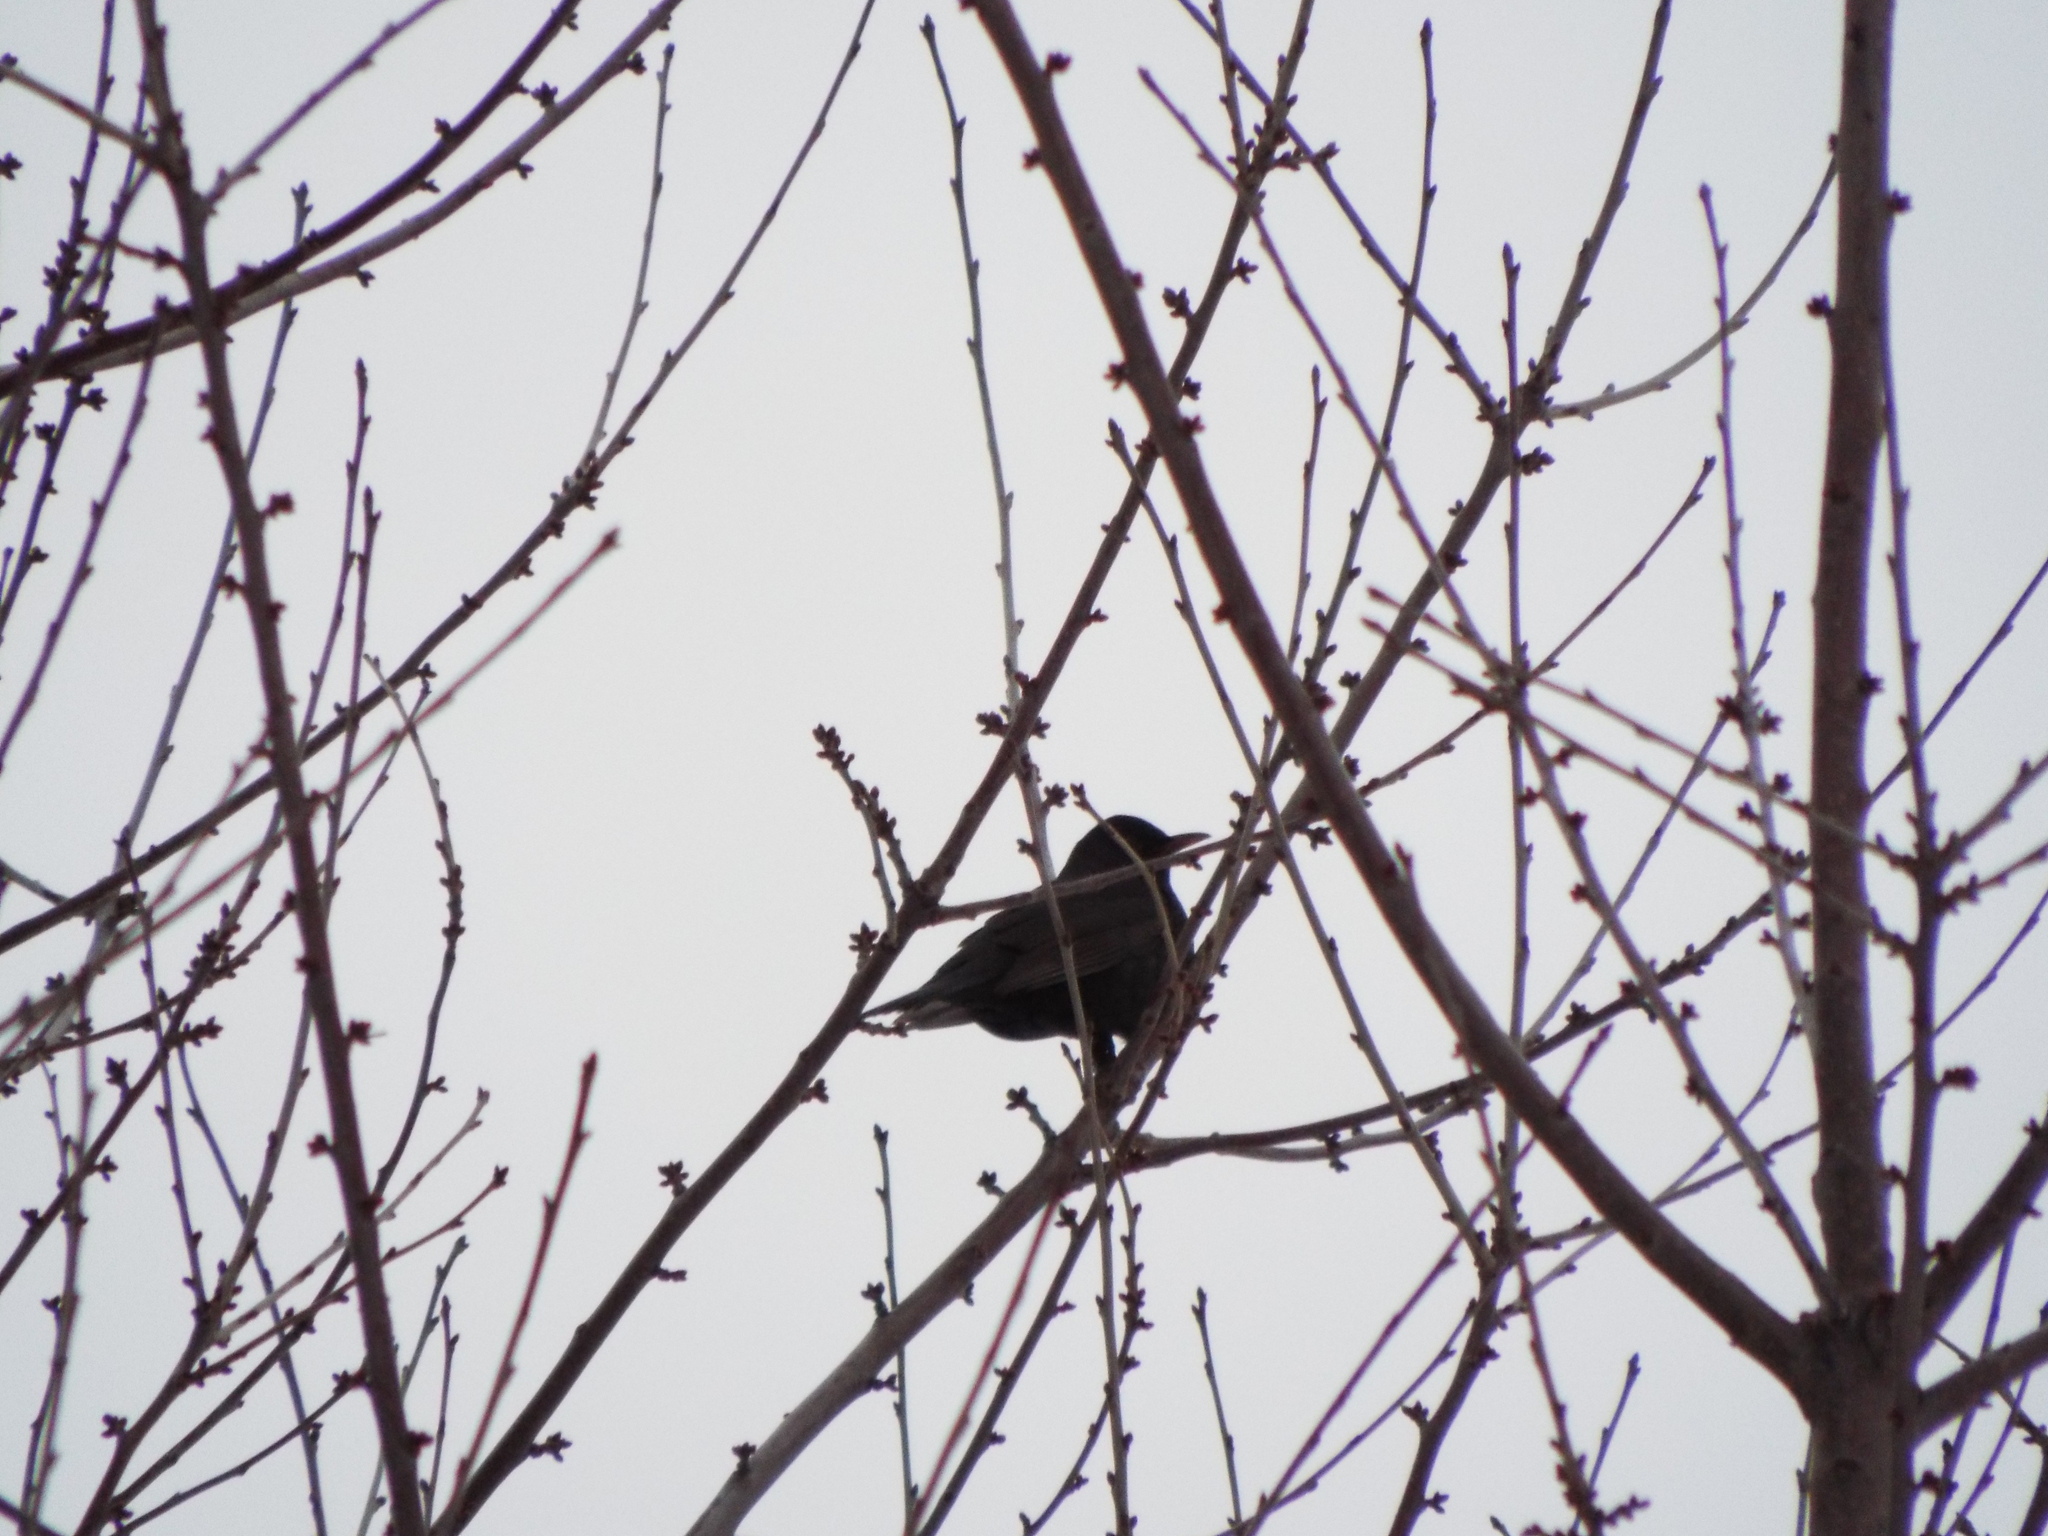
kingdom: Animalia
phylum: Chordata
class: Aves
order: Passeriformes
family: Turdidae
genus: Turdus
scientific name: Turdus merula
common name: Common blackbird
